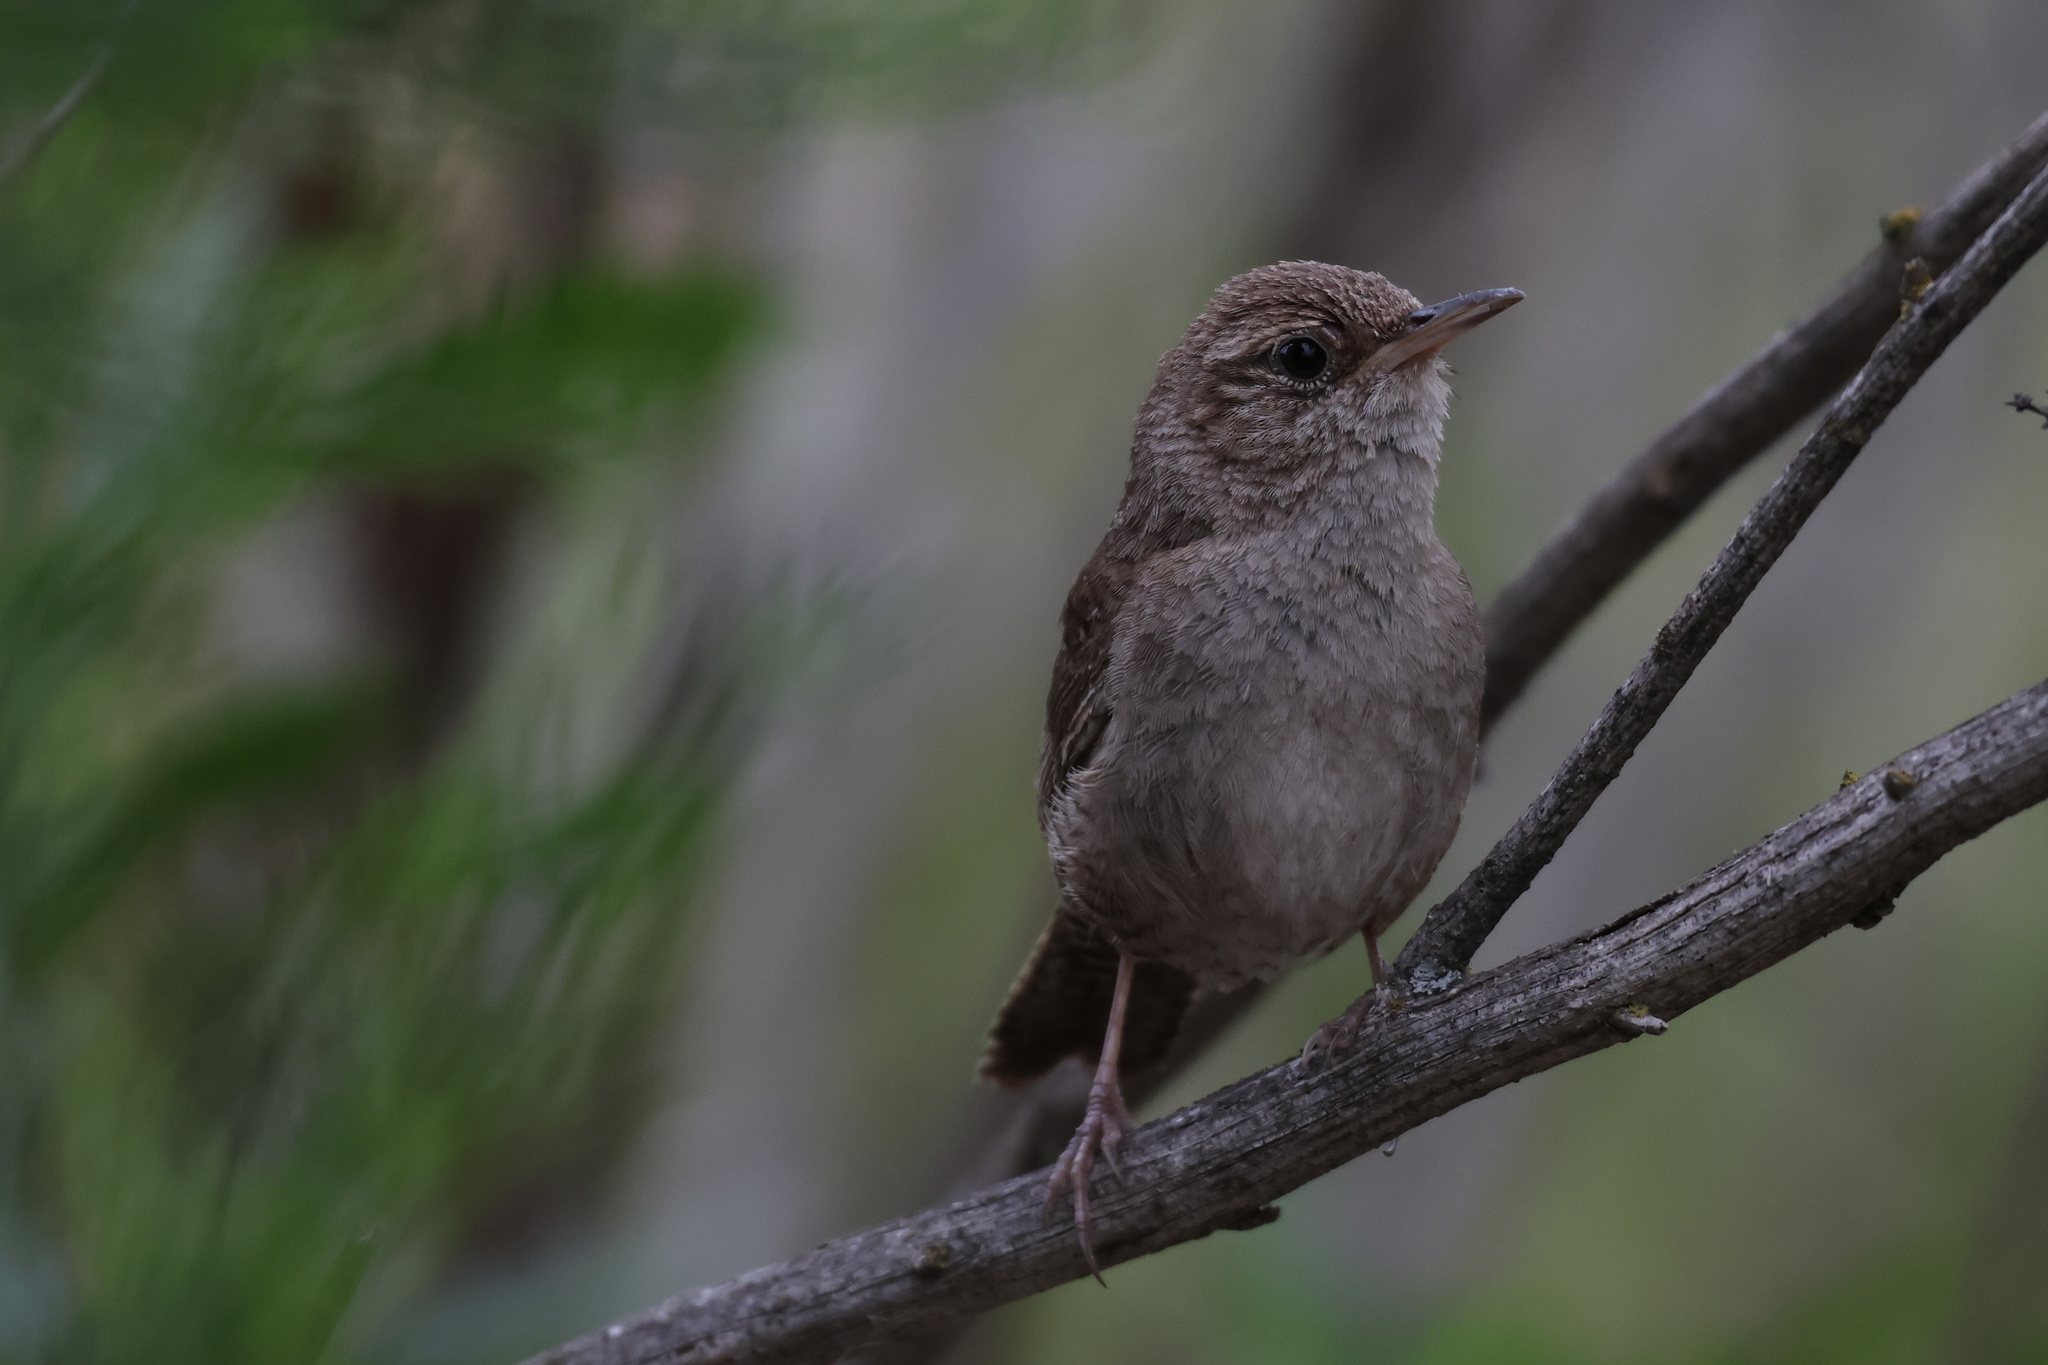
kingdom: Animalia
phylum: Chordata
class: Aves
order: Passeriformes
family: Troglodytidae
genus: Troglodytes
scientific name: Troglodytes aedon
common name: House wren
